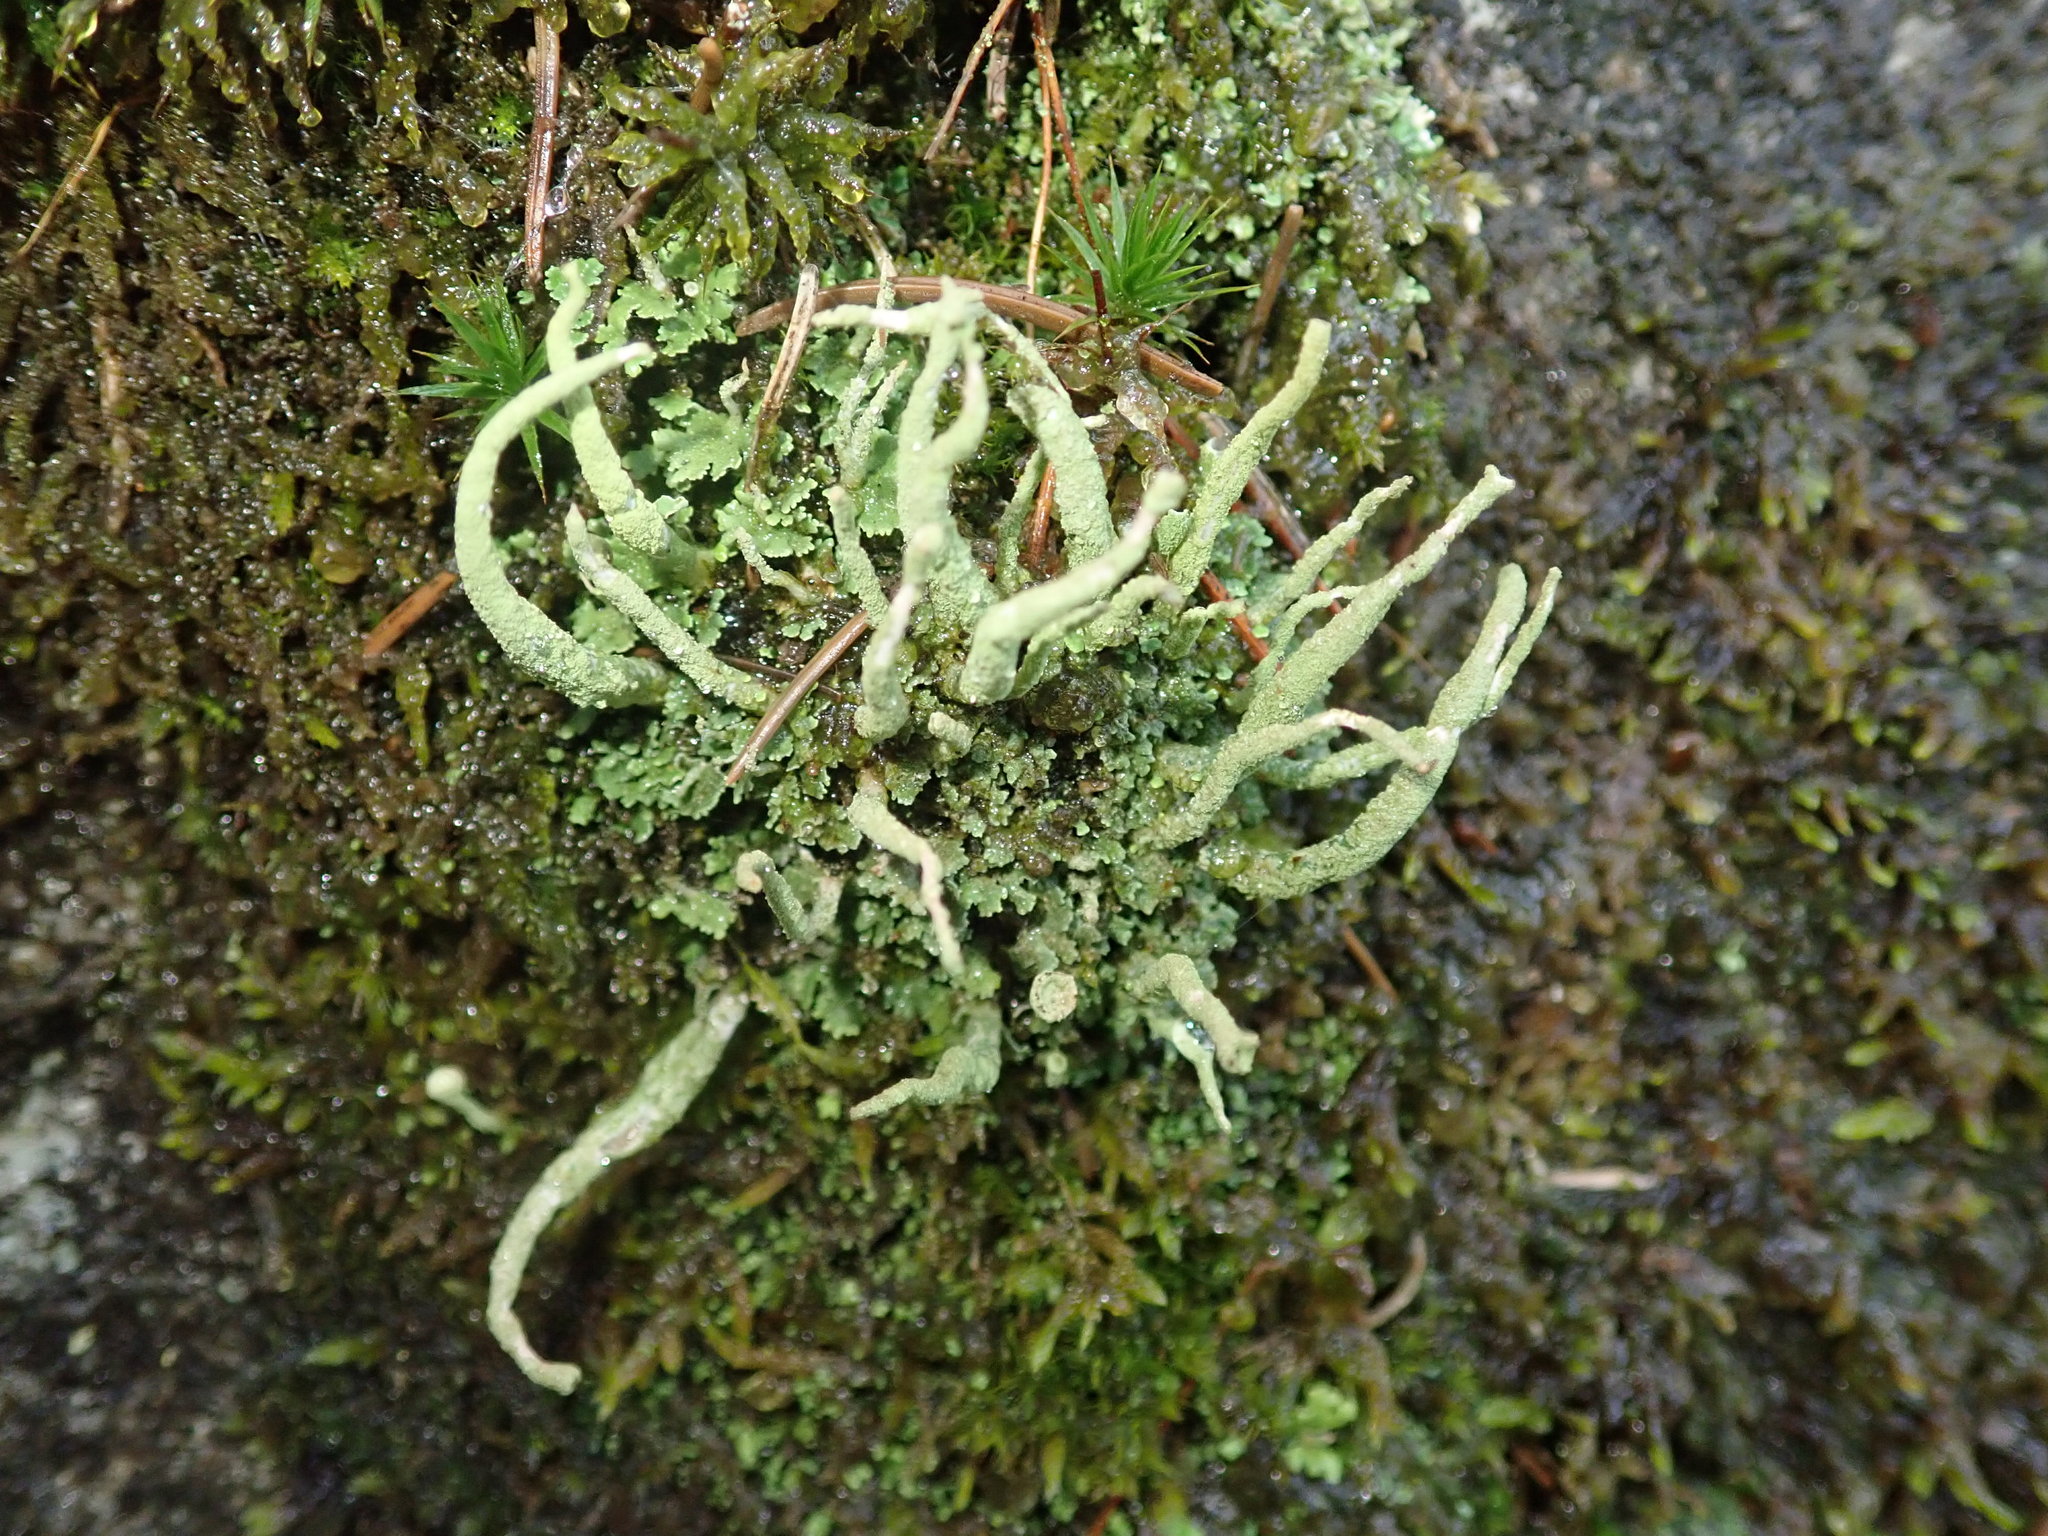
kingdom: Fungi
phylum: Ascomycota
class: Lecanoromycetes
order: Lecanorales
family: Cladoniaceae
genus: Cladonia
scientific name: Cladonia coniocraea
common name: Common powderhorn
